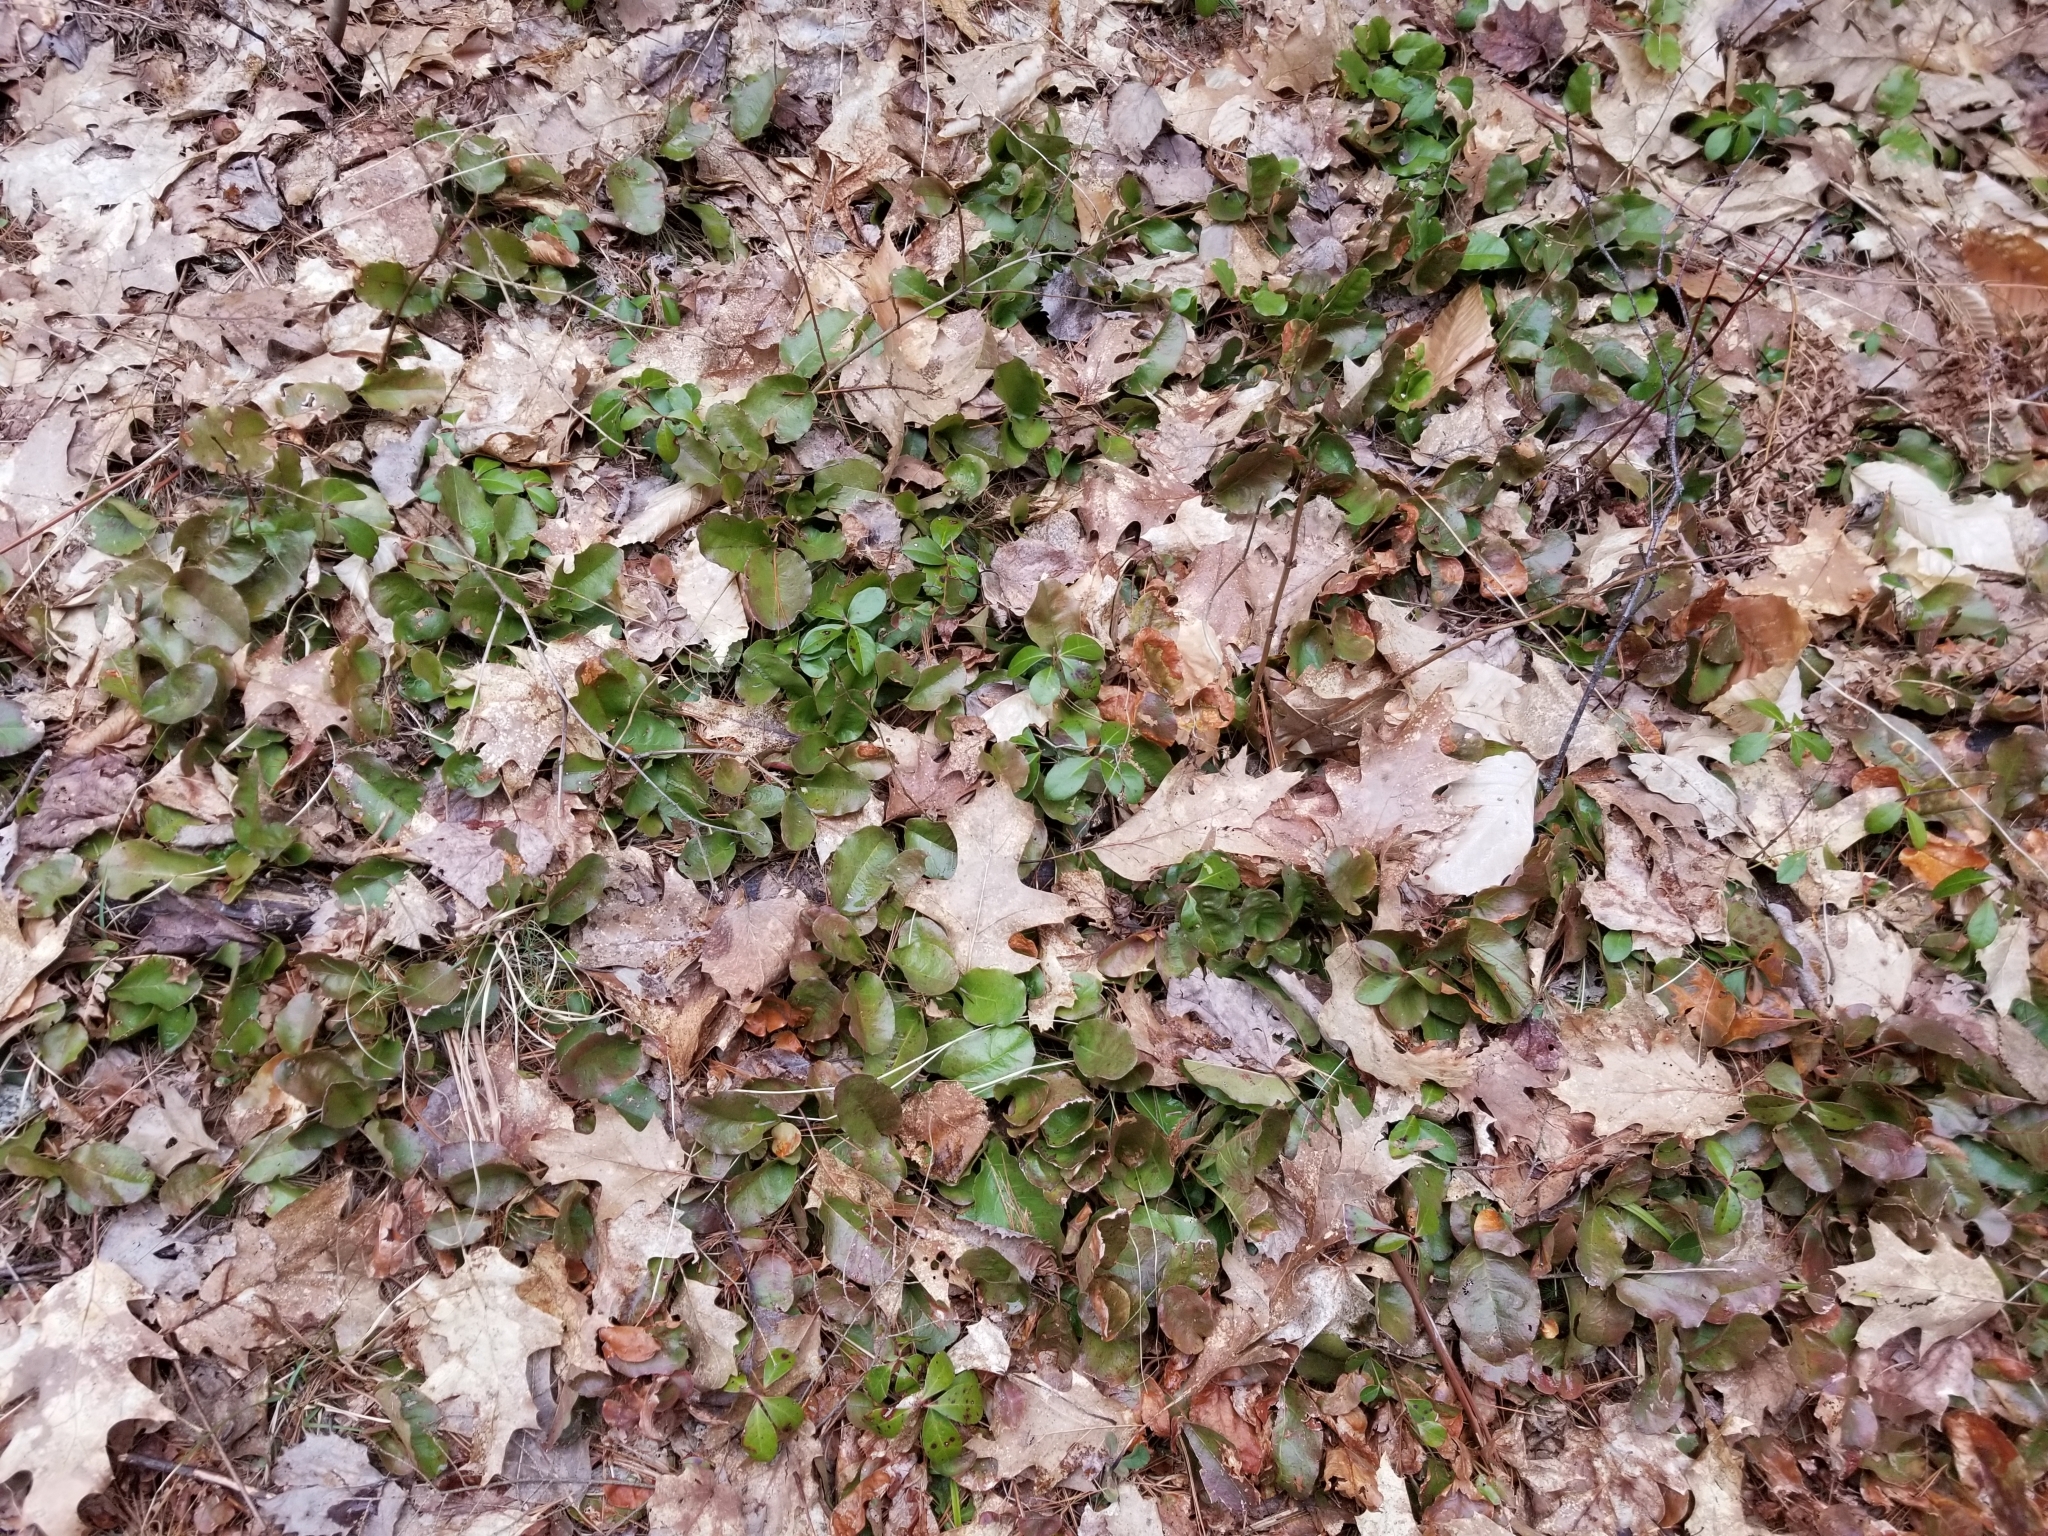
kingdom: Plantae
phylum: Tracheophyta
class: Magnoliopsida
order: Ericales
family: Ericaceae
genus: Epigaea
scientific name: Epigaea repens
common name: Gravelroot
